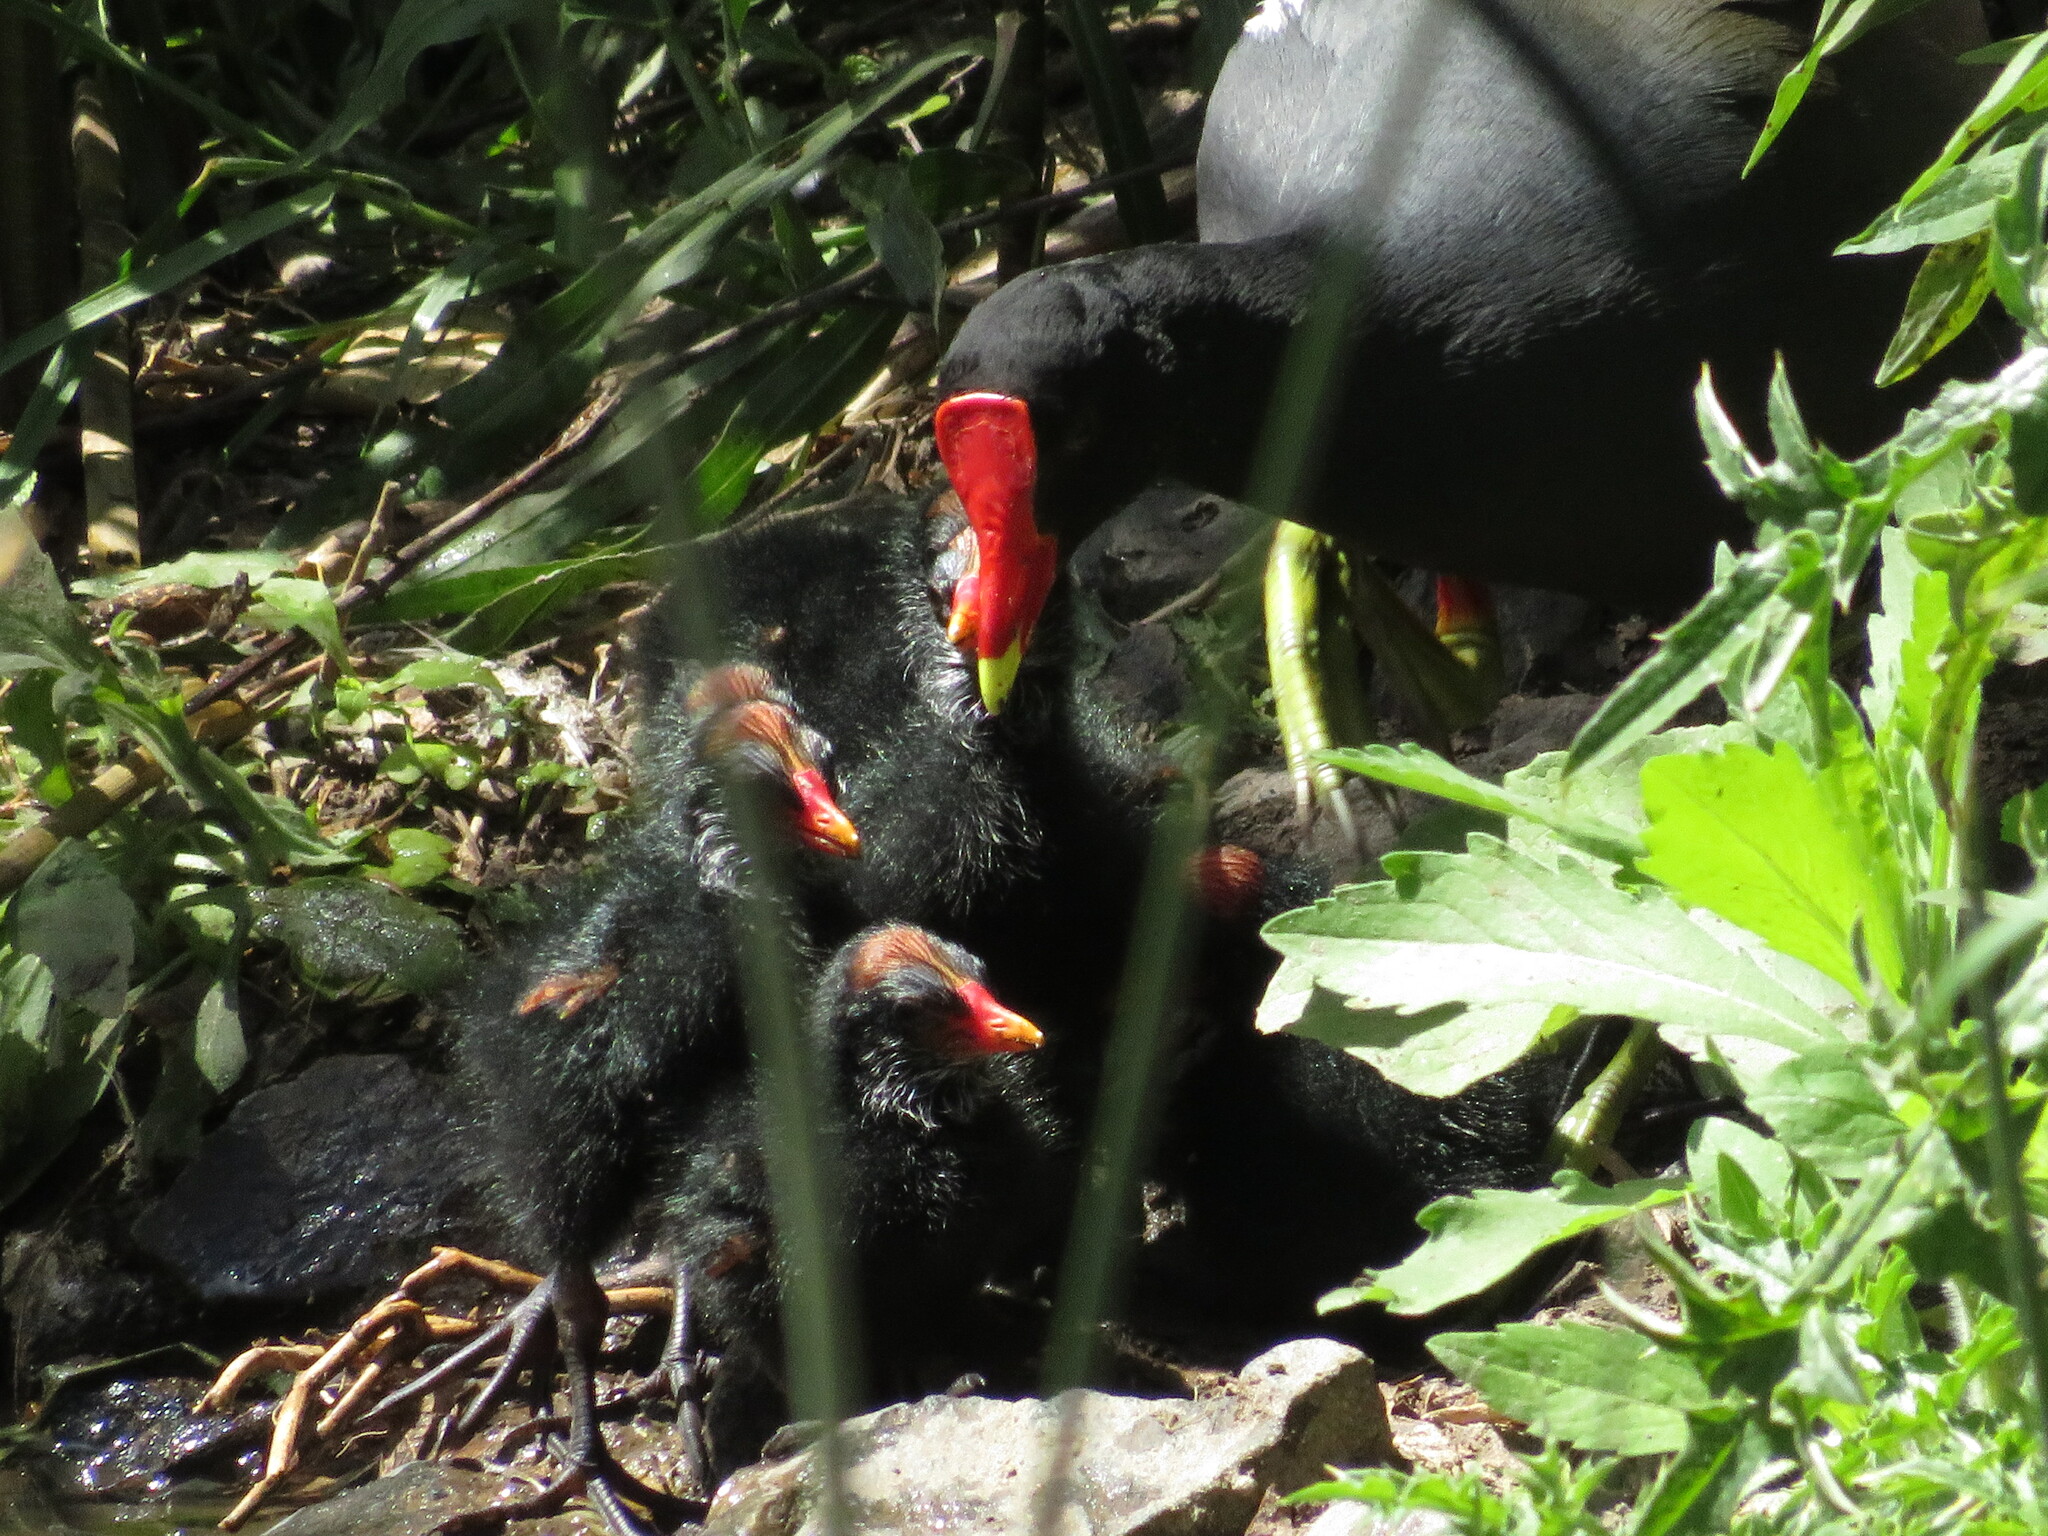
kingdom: Animalia
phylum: Chordata
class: Aves
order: Gruiformes
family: Rallidae
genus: Gallinula
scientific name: Gallinula chloropus
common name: Common moorhen
